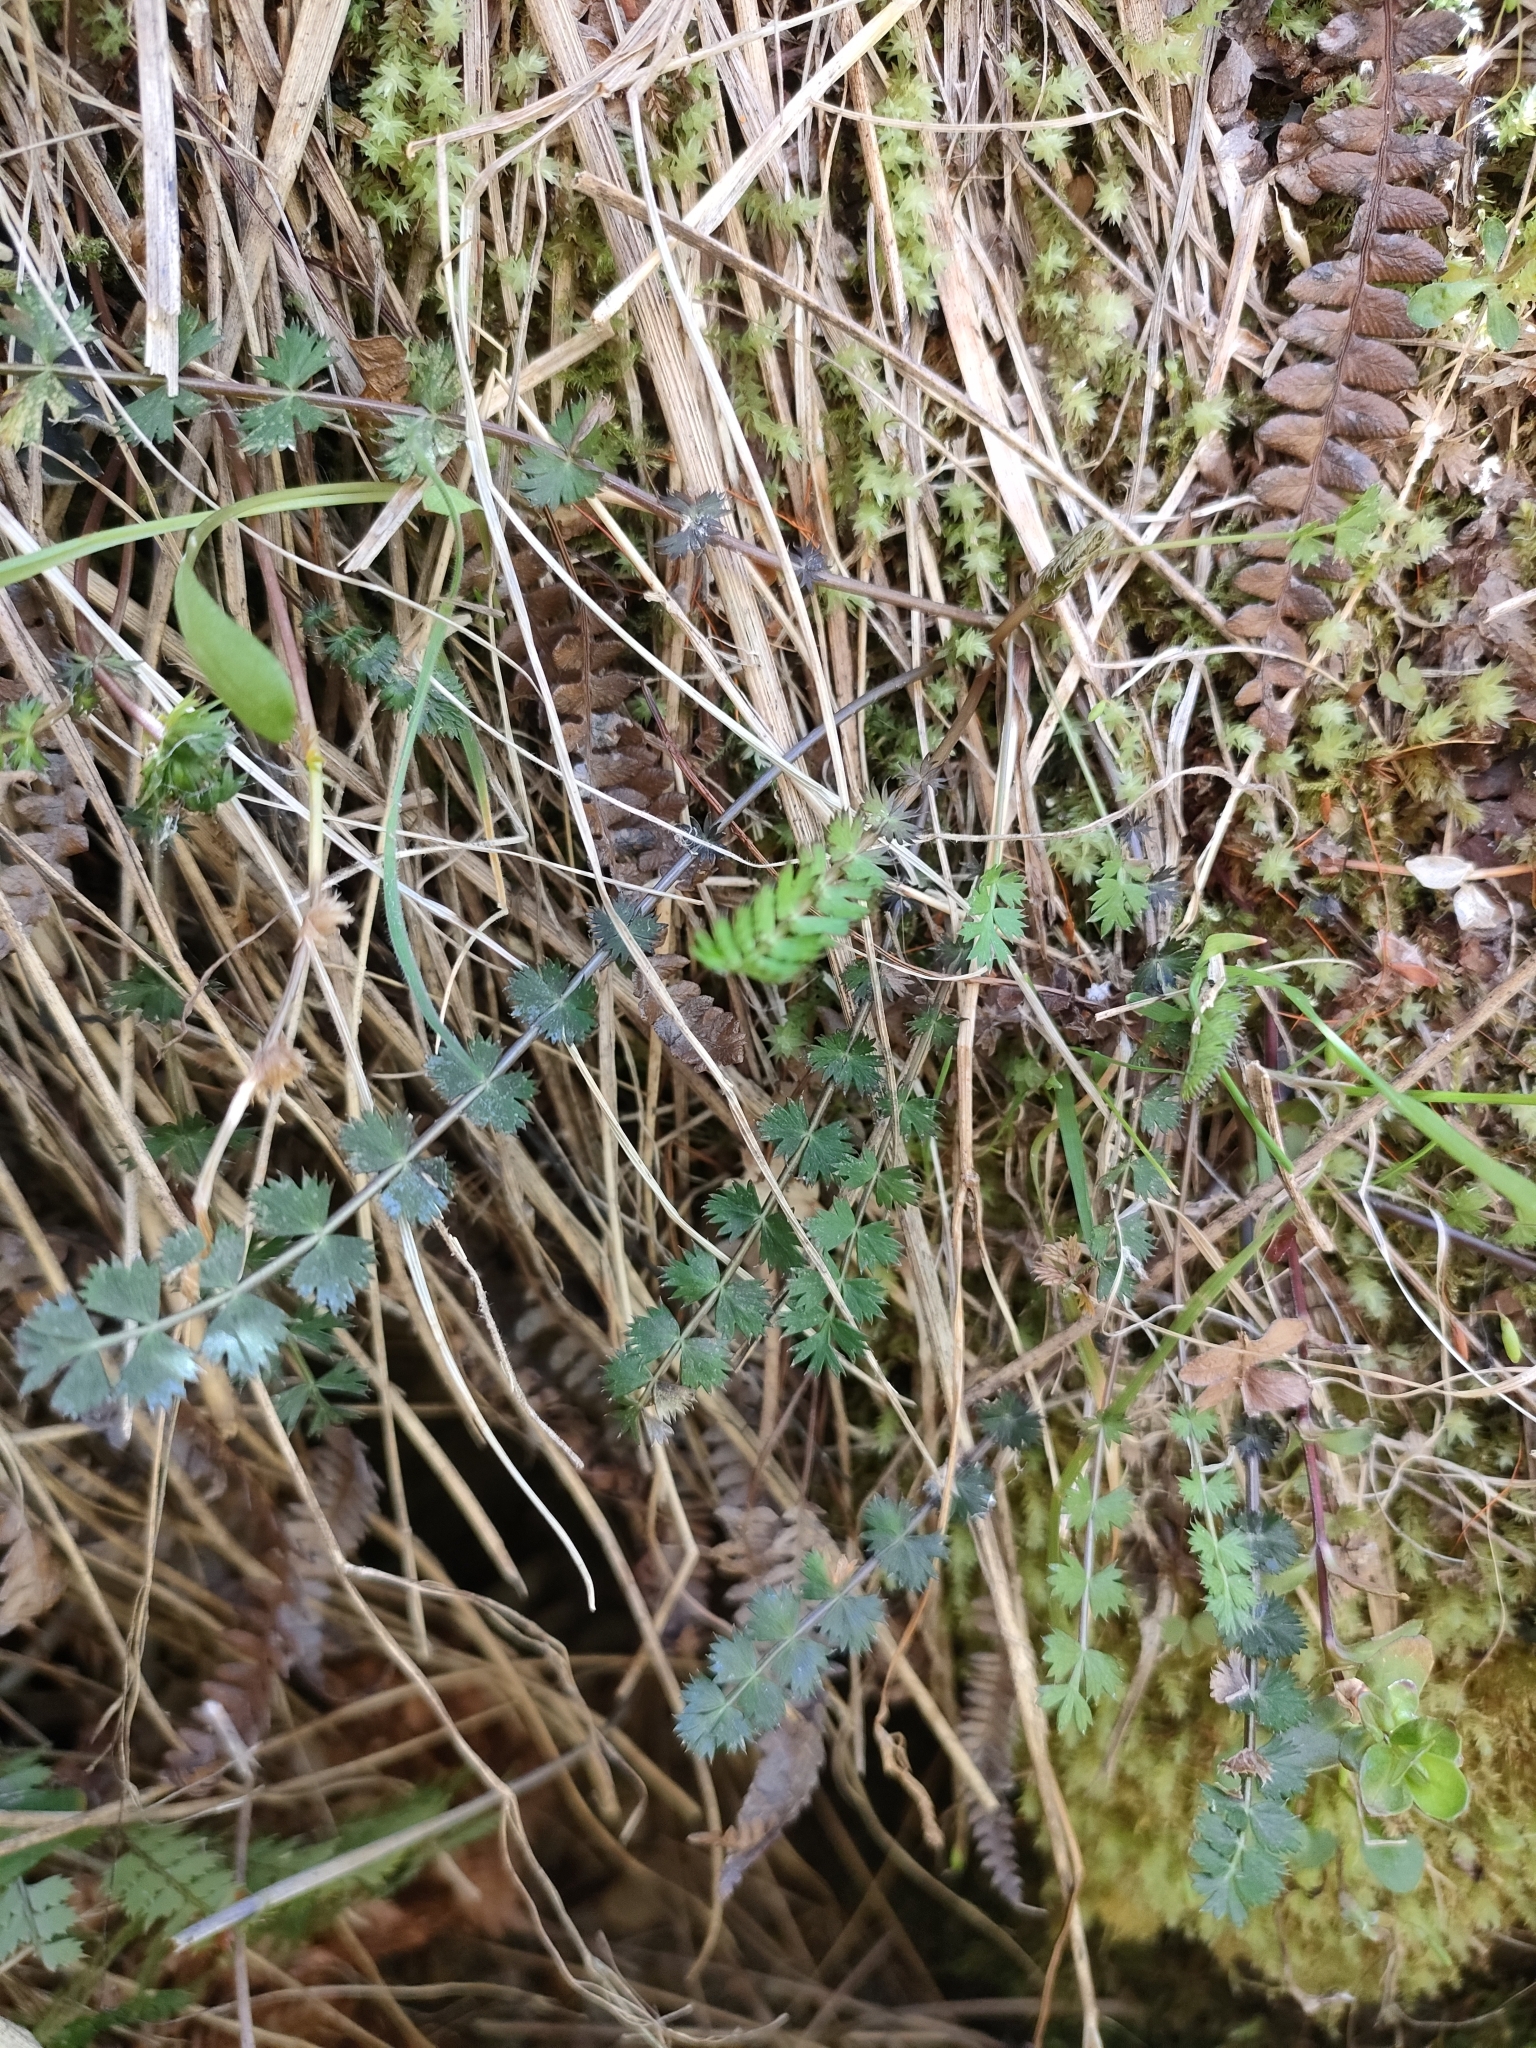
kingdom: Plantae
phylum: Tracheophyta
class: Magnoliopsida
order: Apiales
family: Apiaceae
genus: Anisotome
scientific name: Anisotome aromatica
